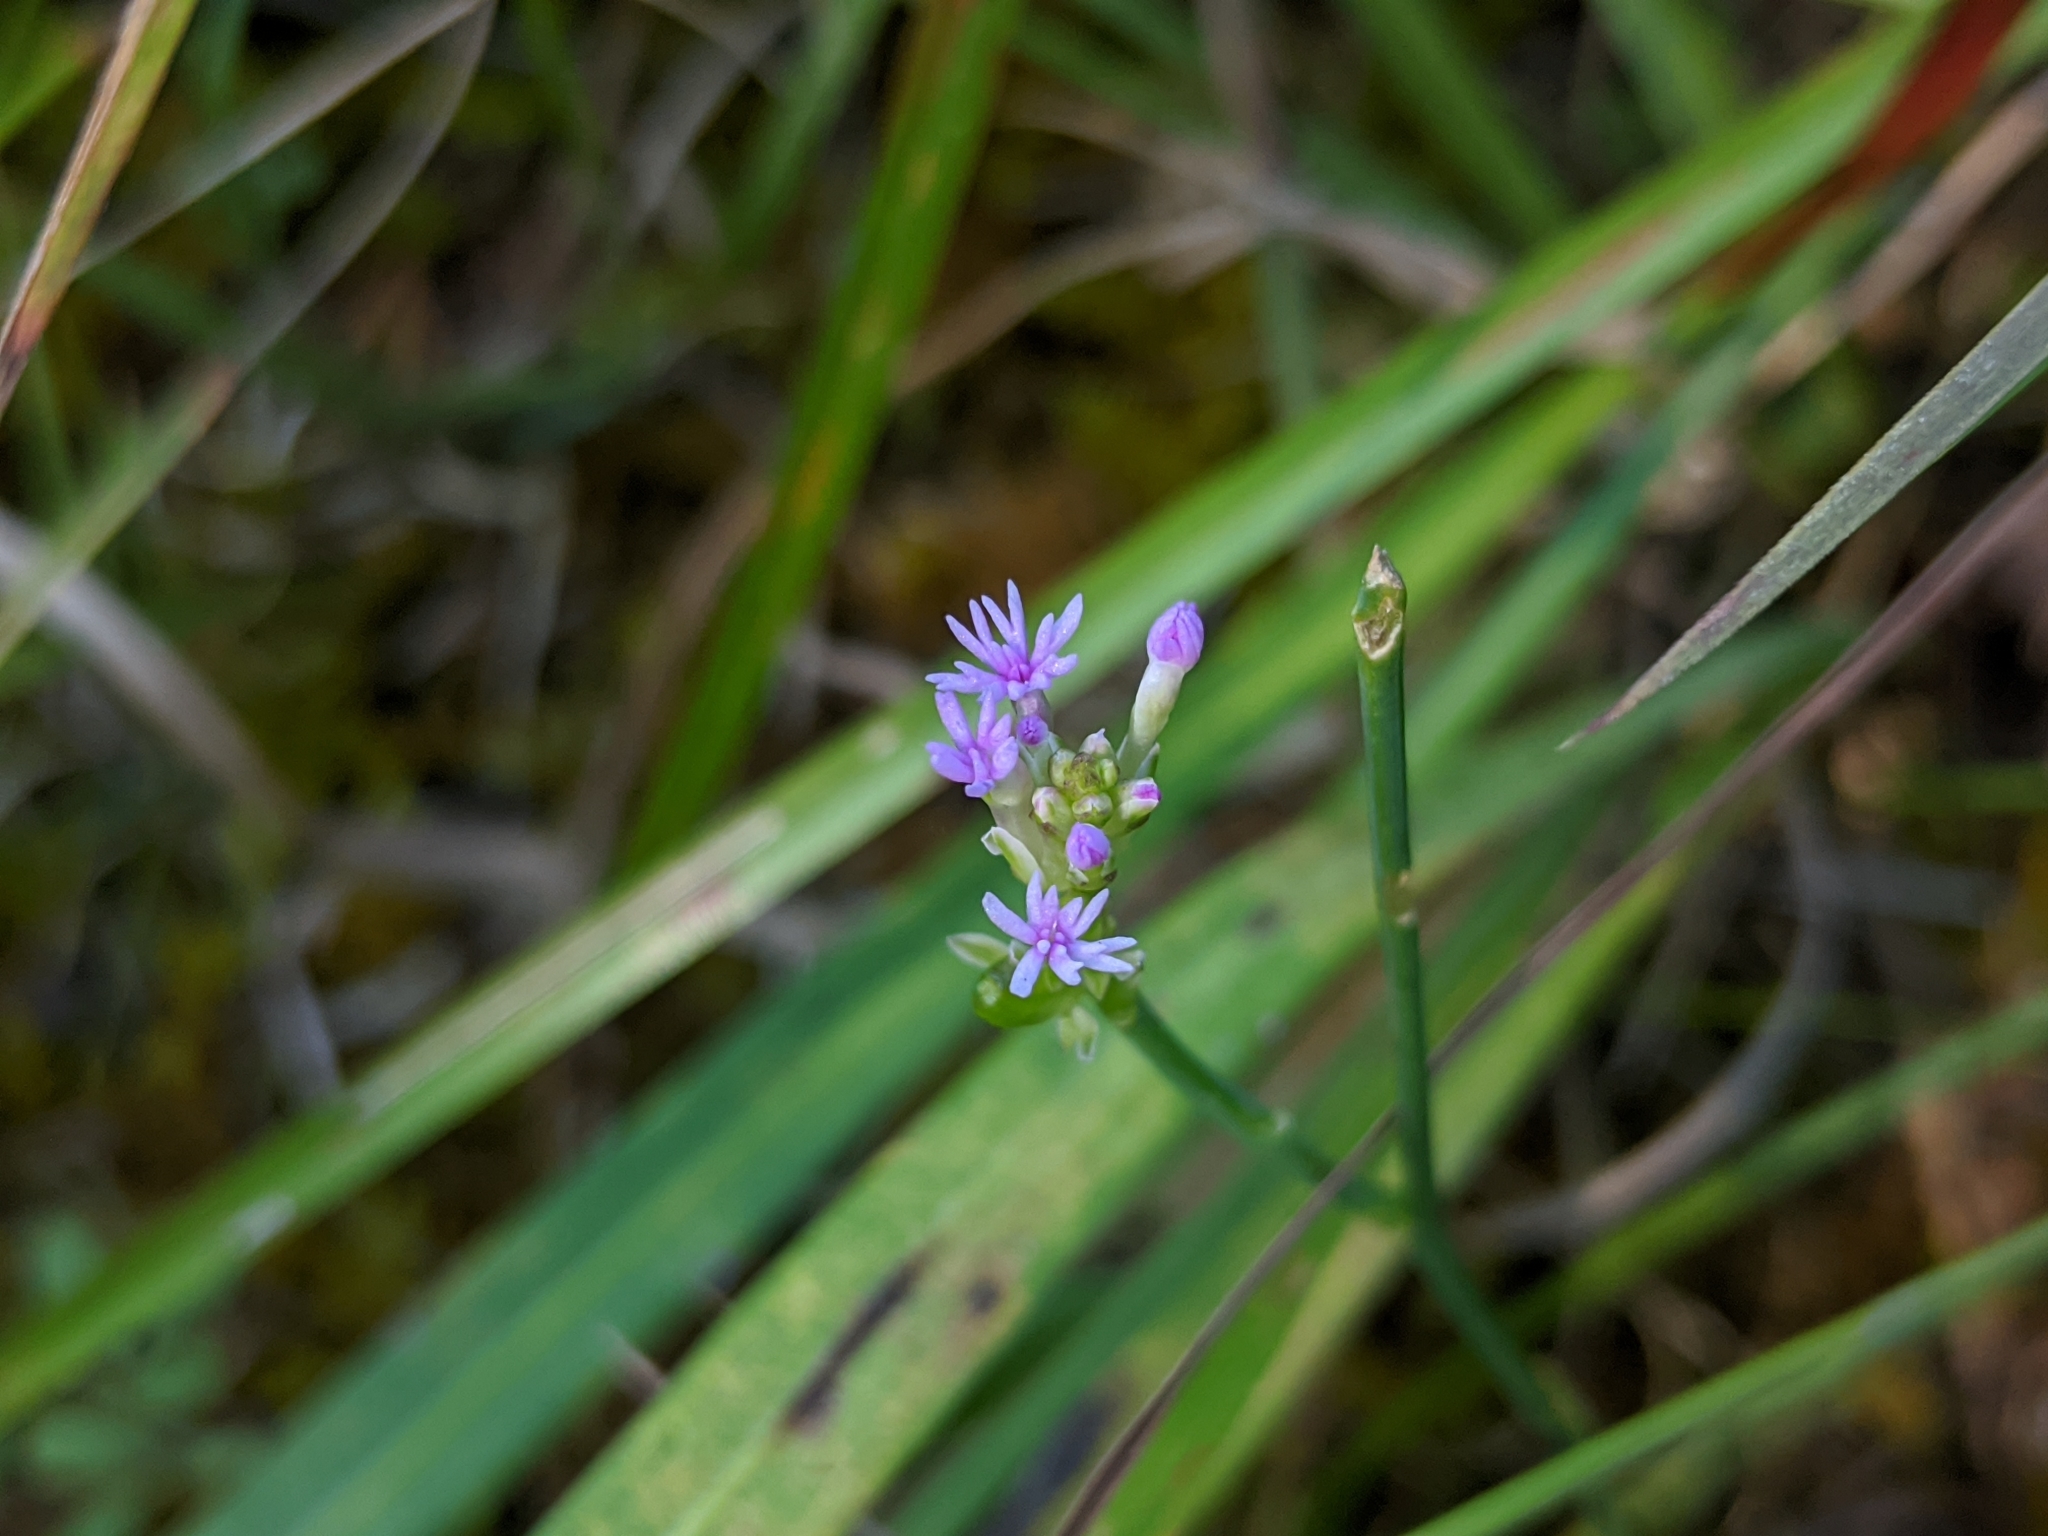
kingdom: Plantae
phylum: Tracheophyta
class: Magnoliopsida
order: Fabales
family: Polygalaceae
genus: Polygala
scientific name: Polygala incarnata
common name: Pink milkwort
